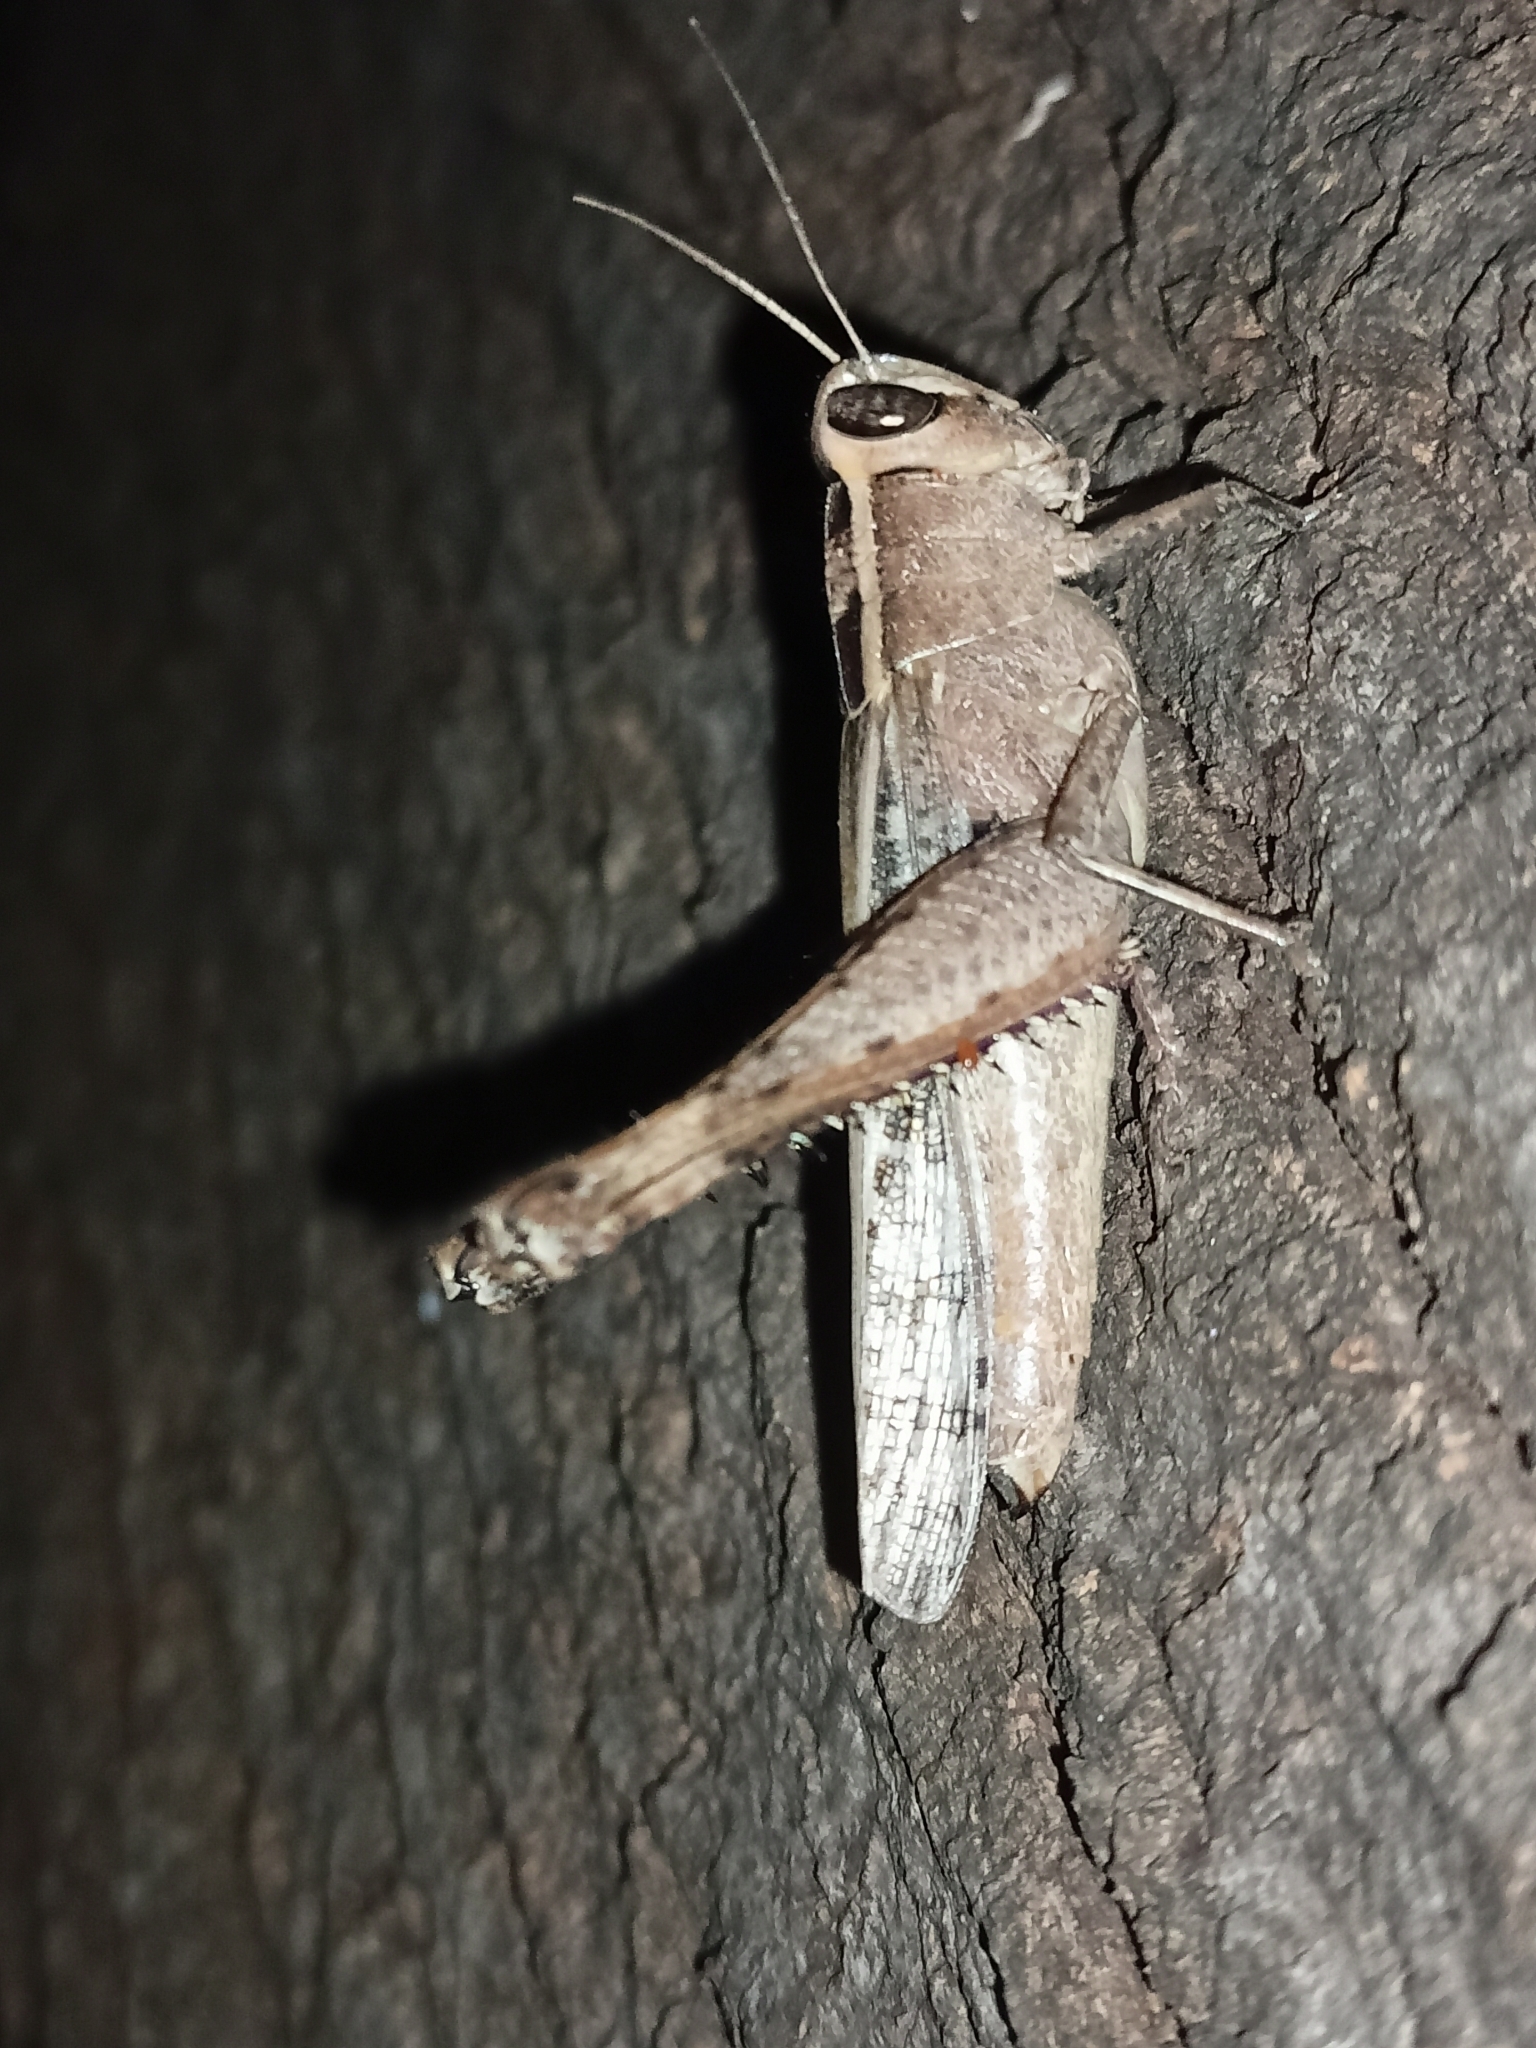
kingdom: Animalia
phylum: Arthropoda
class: Insecta
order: Orthoptera
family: Acrididae
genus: Heteracris
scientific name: Heteracris pulchra
